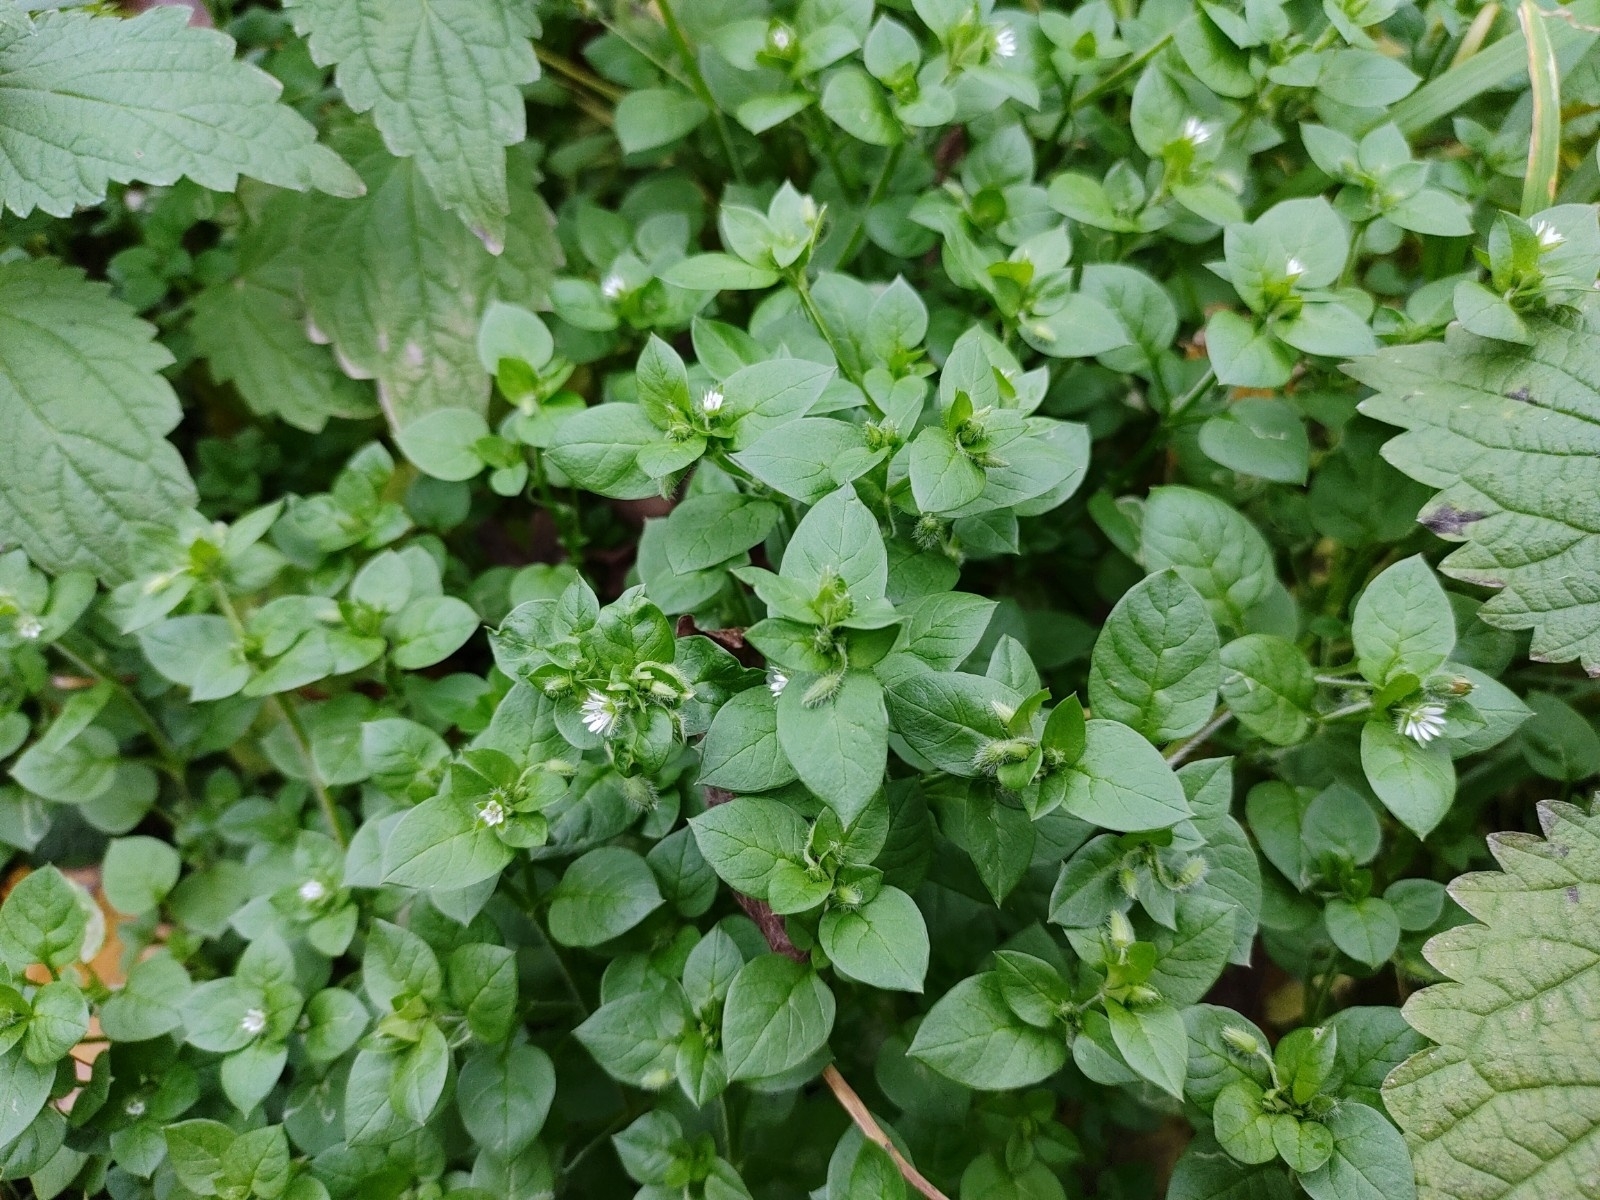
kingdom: Plantae
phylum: Tracheophyta
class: Magnoliopsida
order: Caryophyllales
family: Caryophyllaceae
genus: Stellaria
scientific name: Stellaria media
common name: Common chickweed
